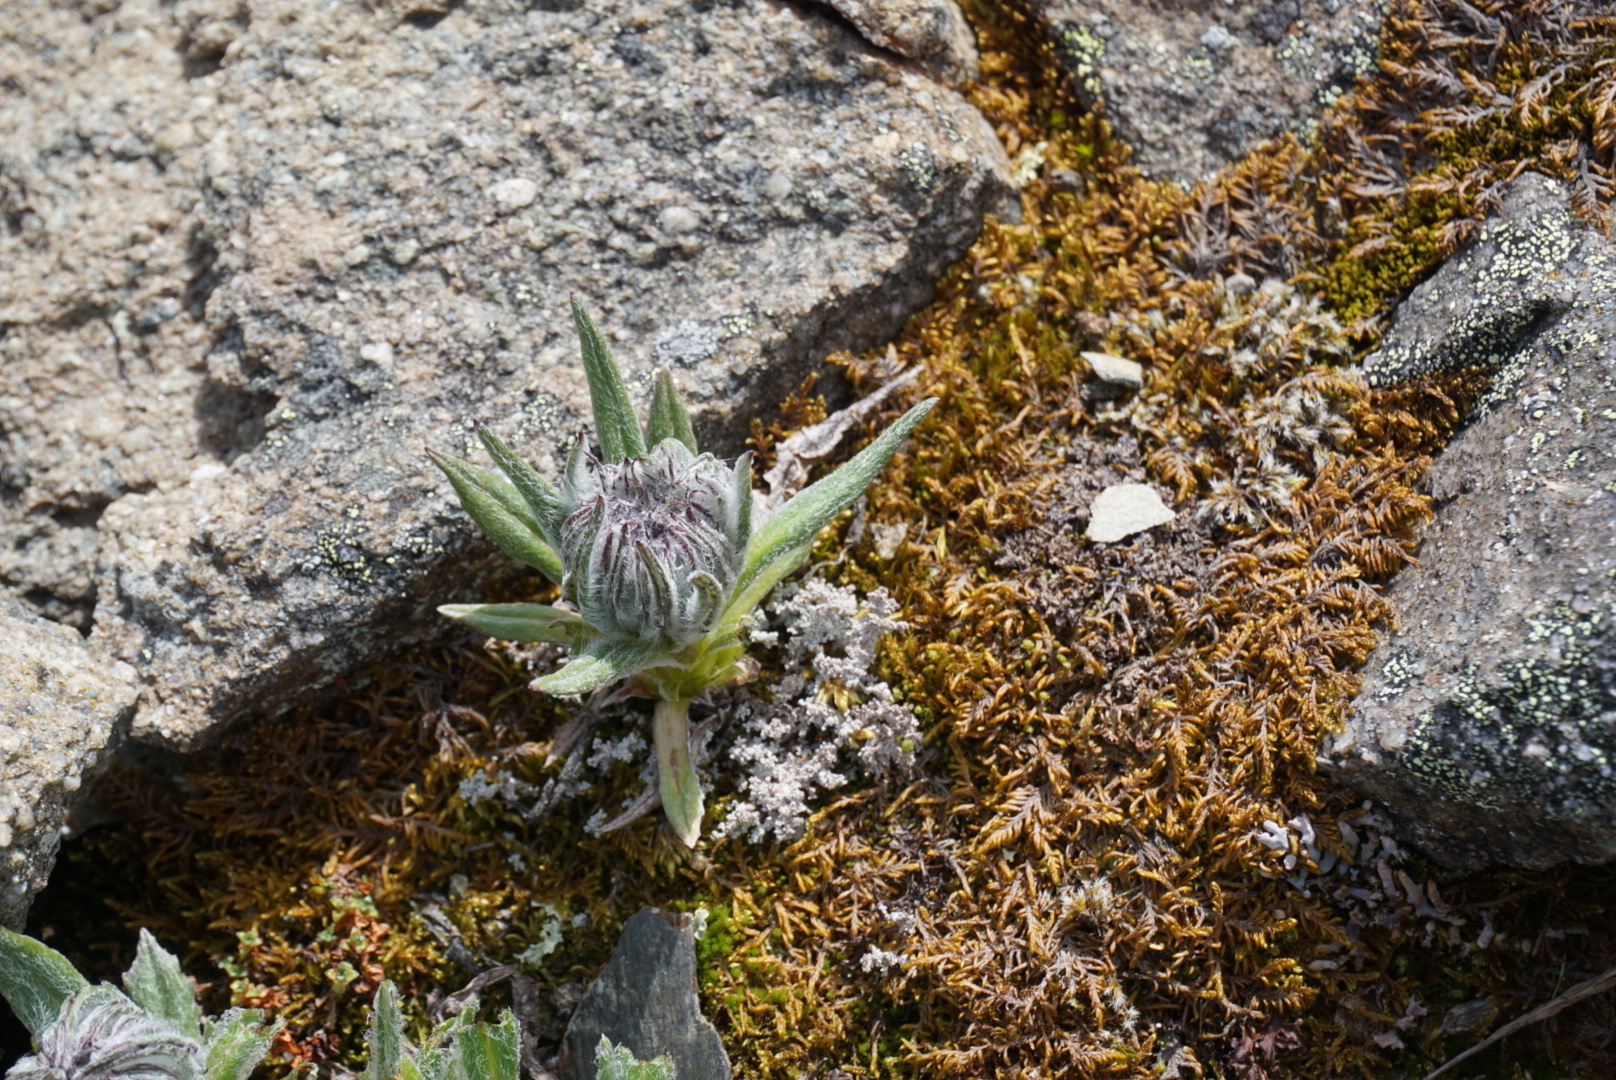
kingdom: Plantae
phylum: Tracheophyta
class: Magnoliopsida
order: Asterales
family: Asteraceae
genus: Saussurea
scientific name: Saussurea nuda
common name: Chaffless saw-wort
